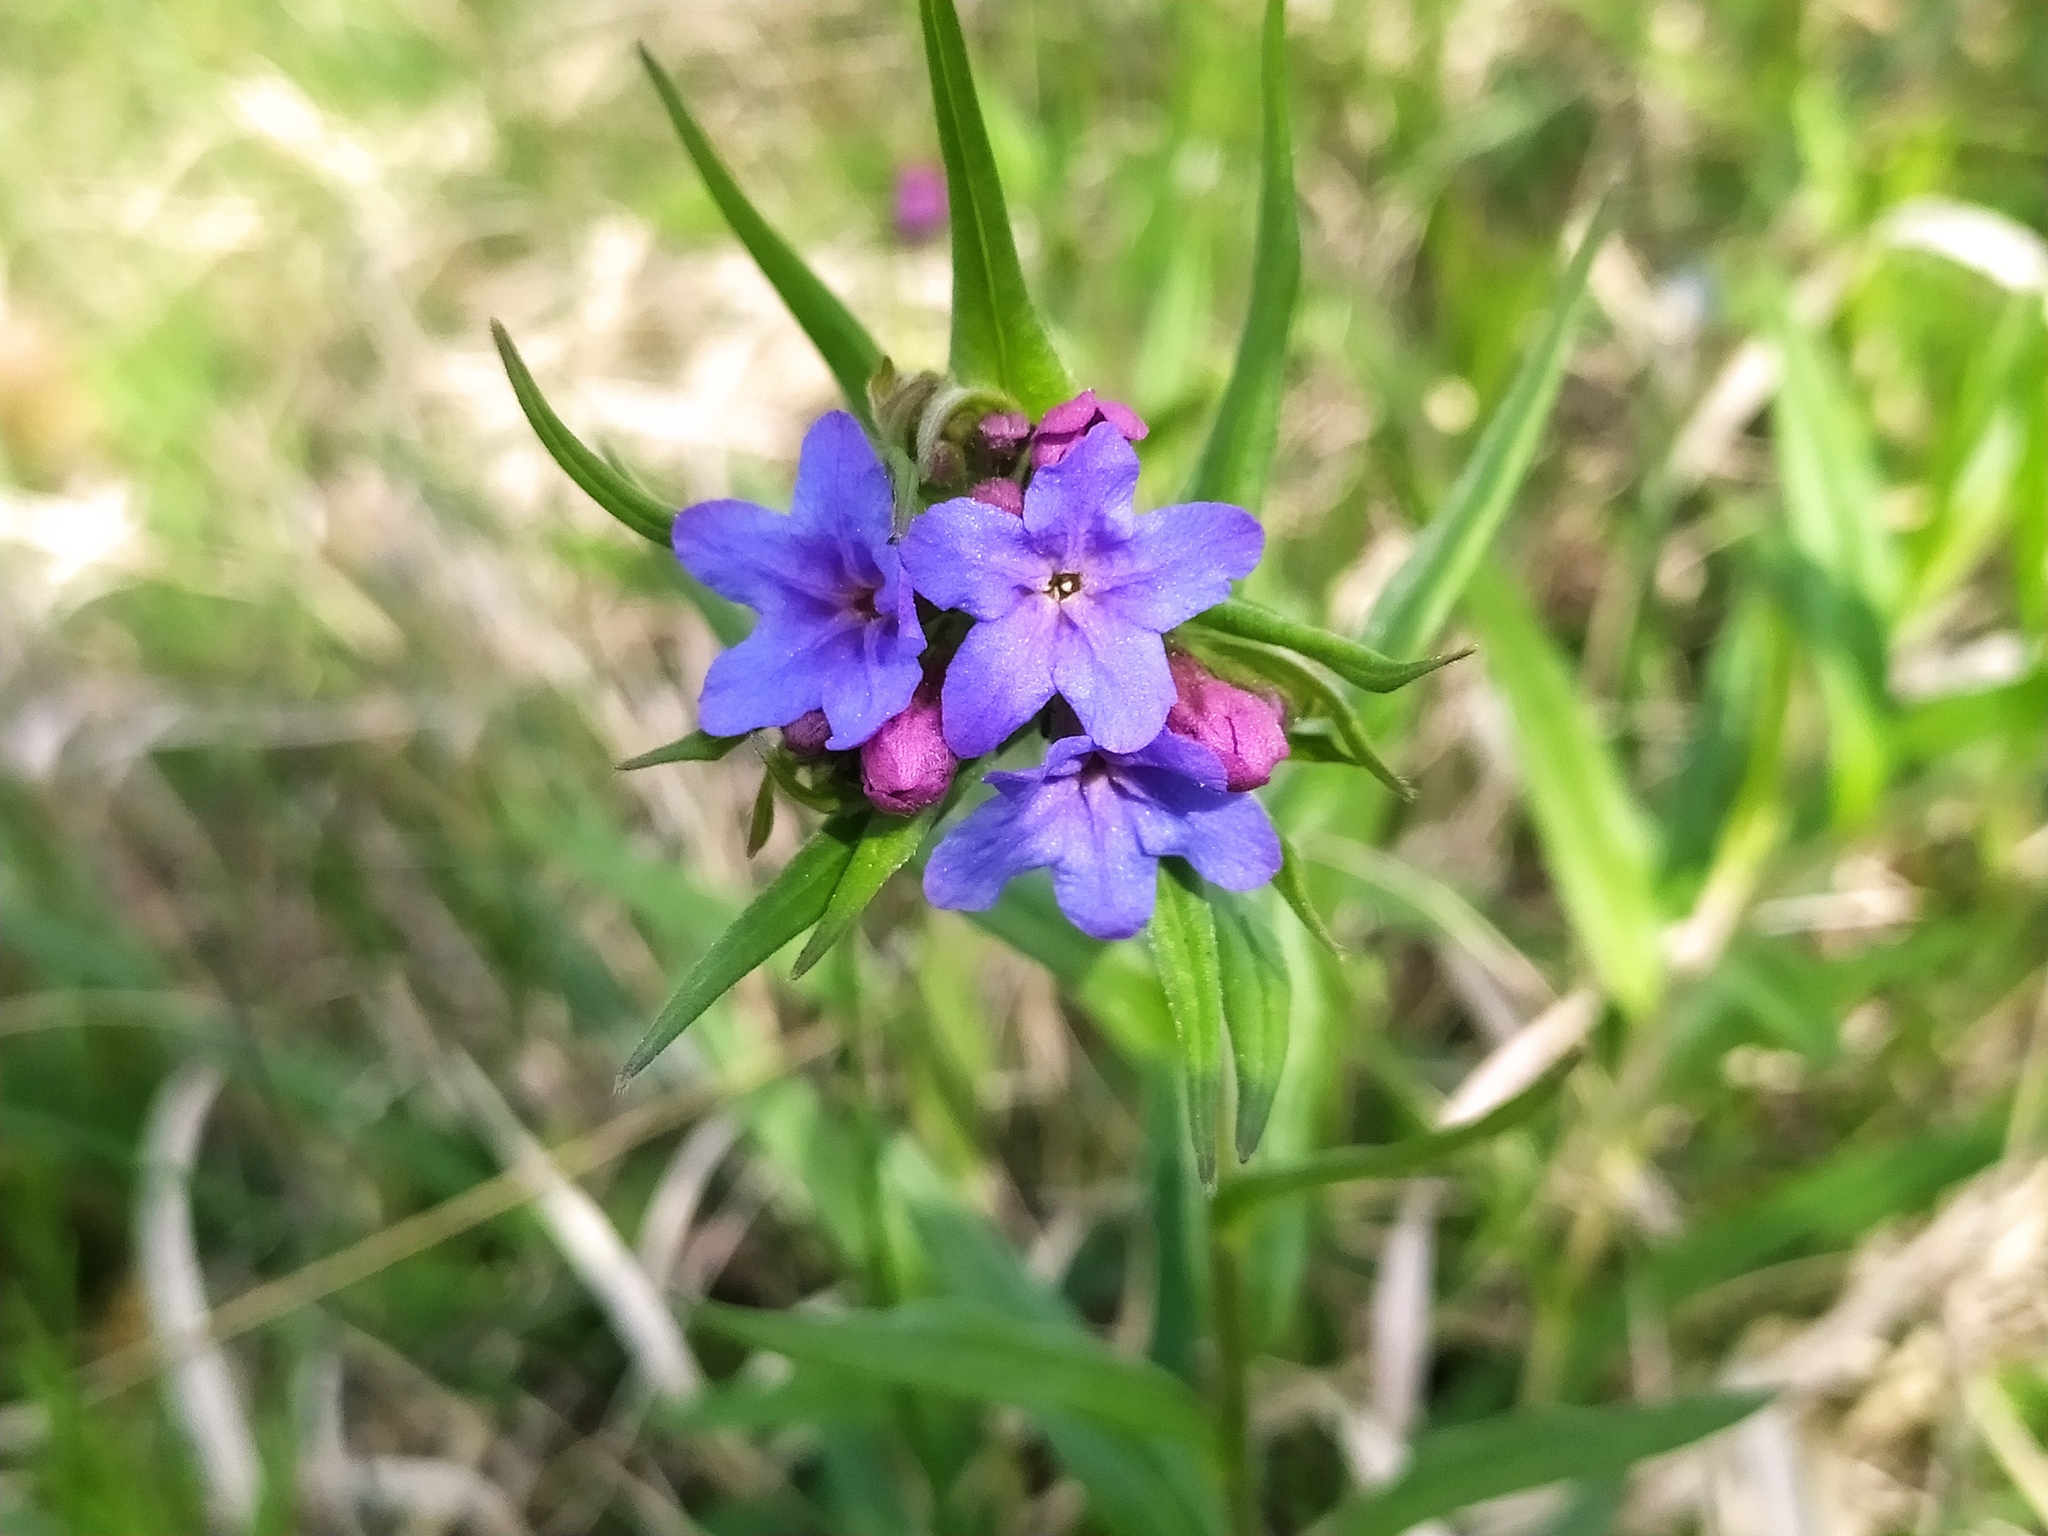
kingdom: Plantae
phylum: Tracheophyta
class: Magnoliopsida
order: Boraginales
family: Boraginaceae
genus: Aegonychon
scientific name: Aegonychon purpurocaeruleum
